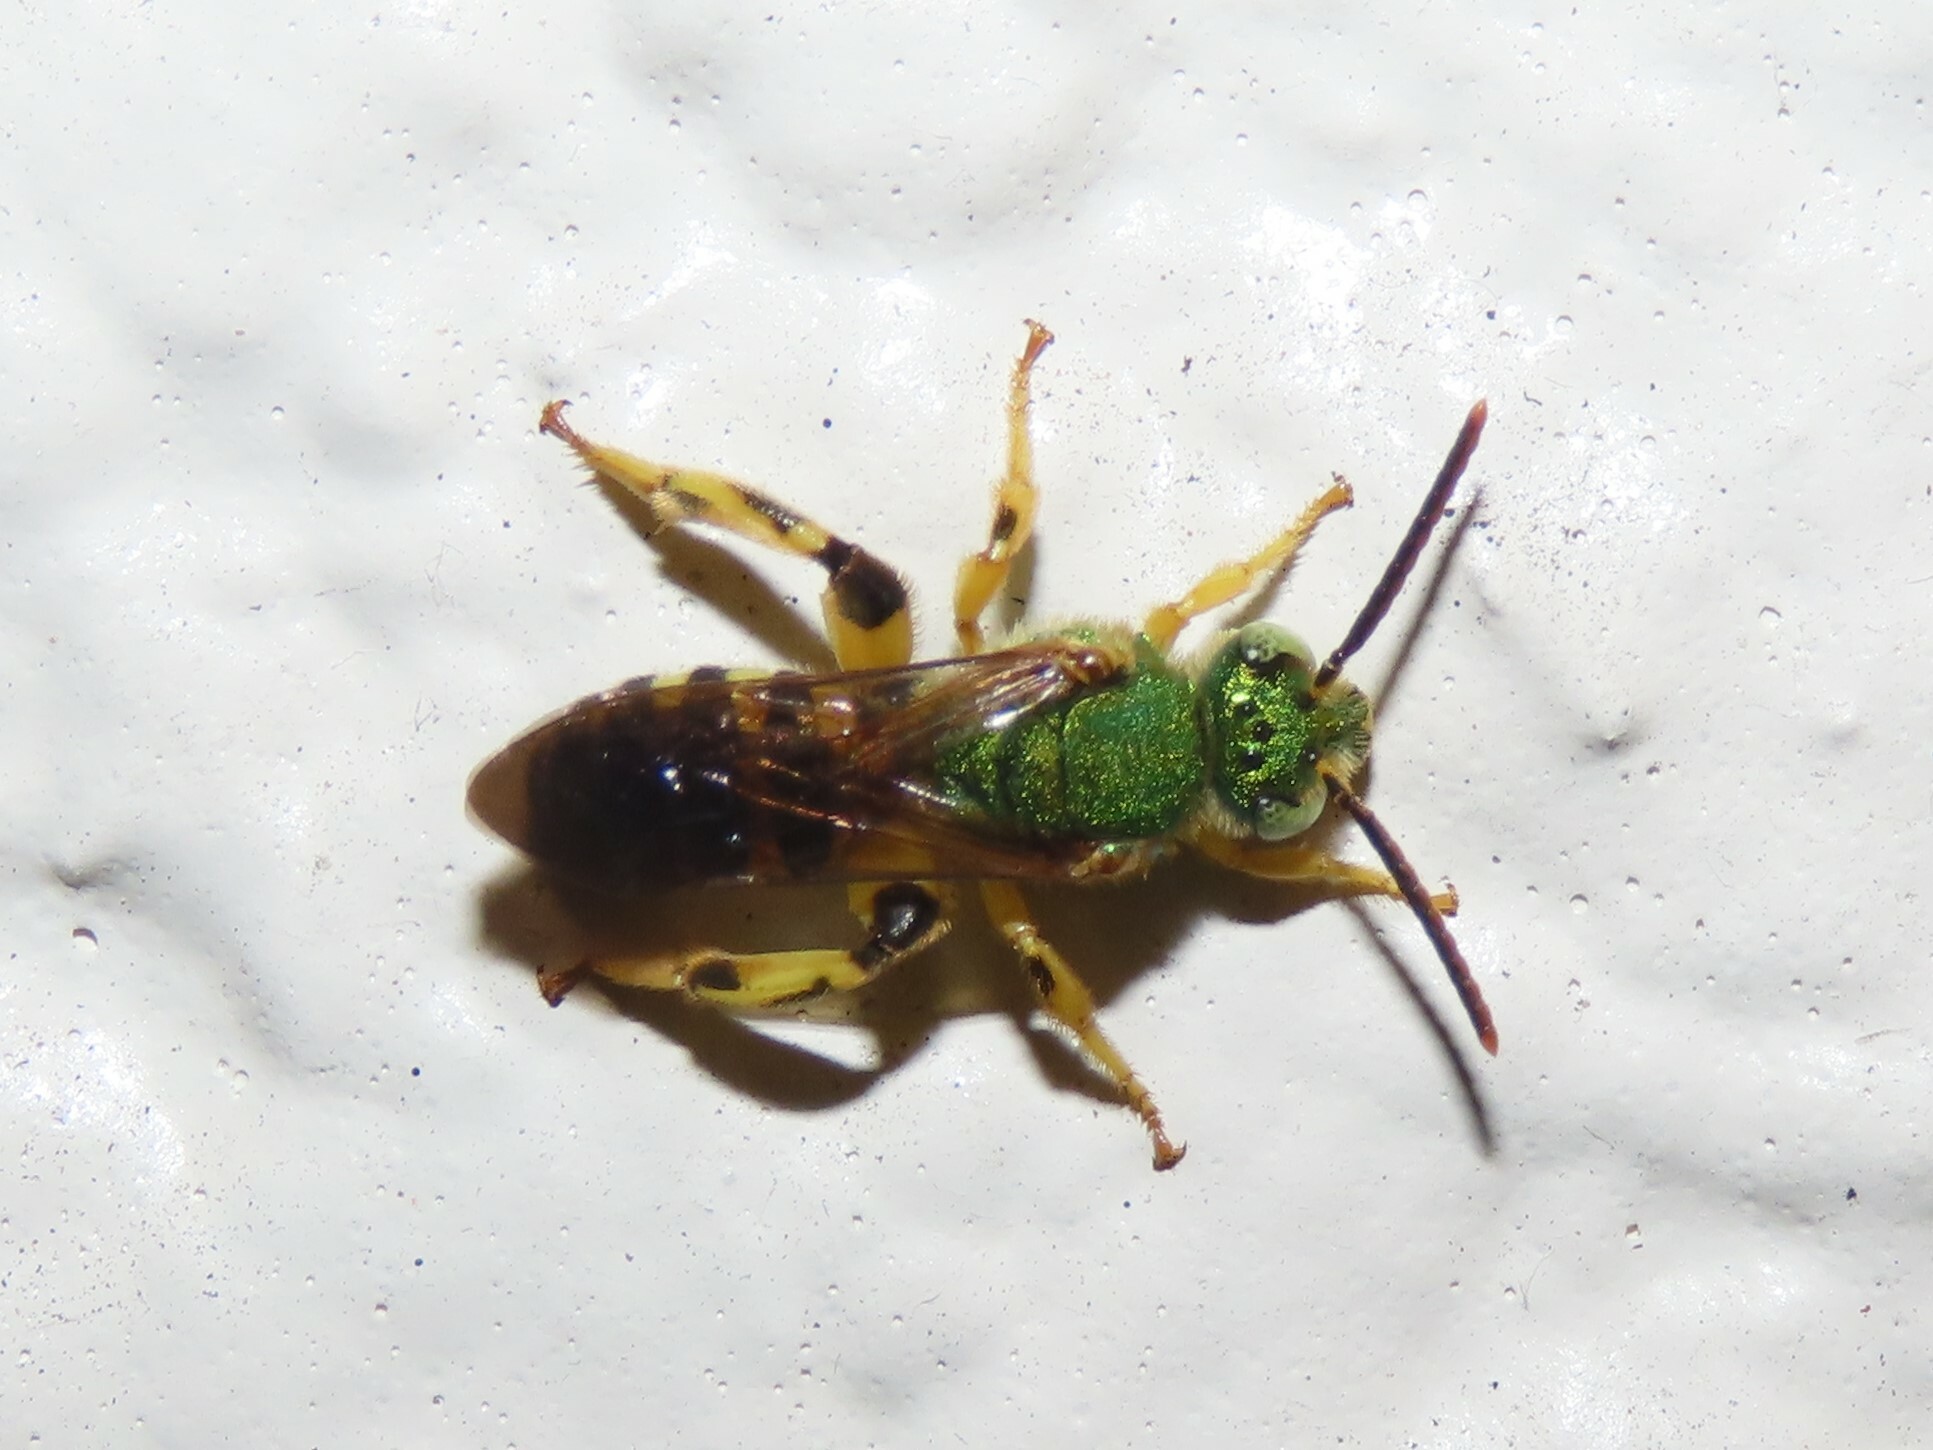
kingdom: Animalia
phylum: Arthropoda
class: Insecta
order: Hymenoptera
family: Halictidae
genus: Agapostemon
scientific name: Agapostemon splendens
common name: Brown-winged striped sweat bee
